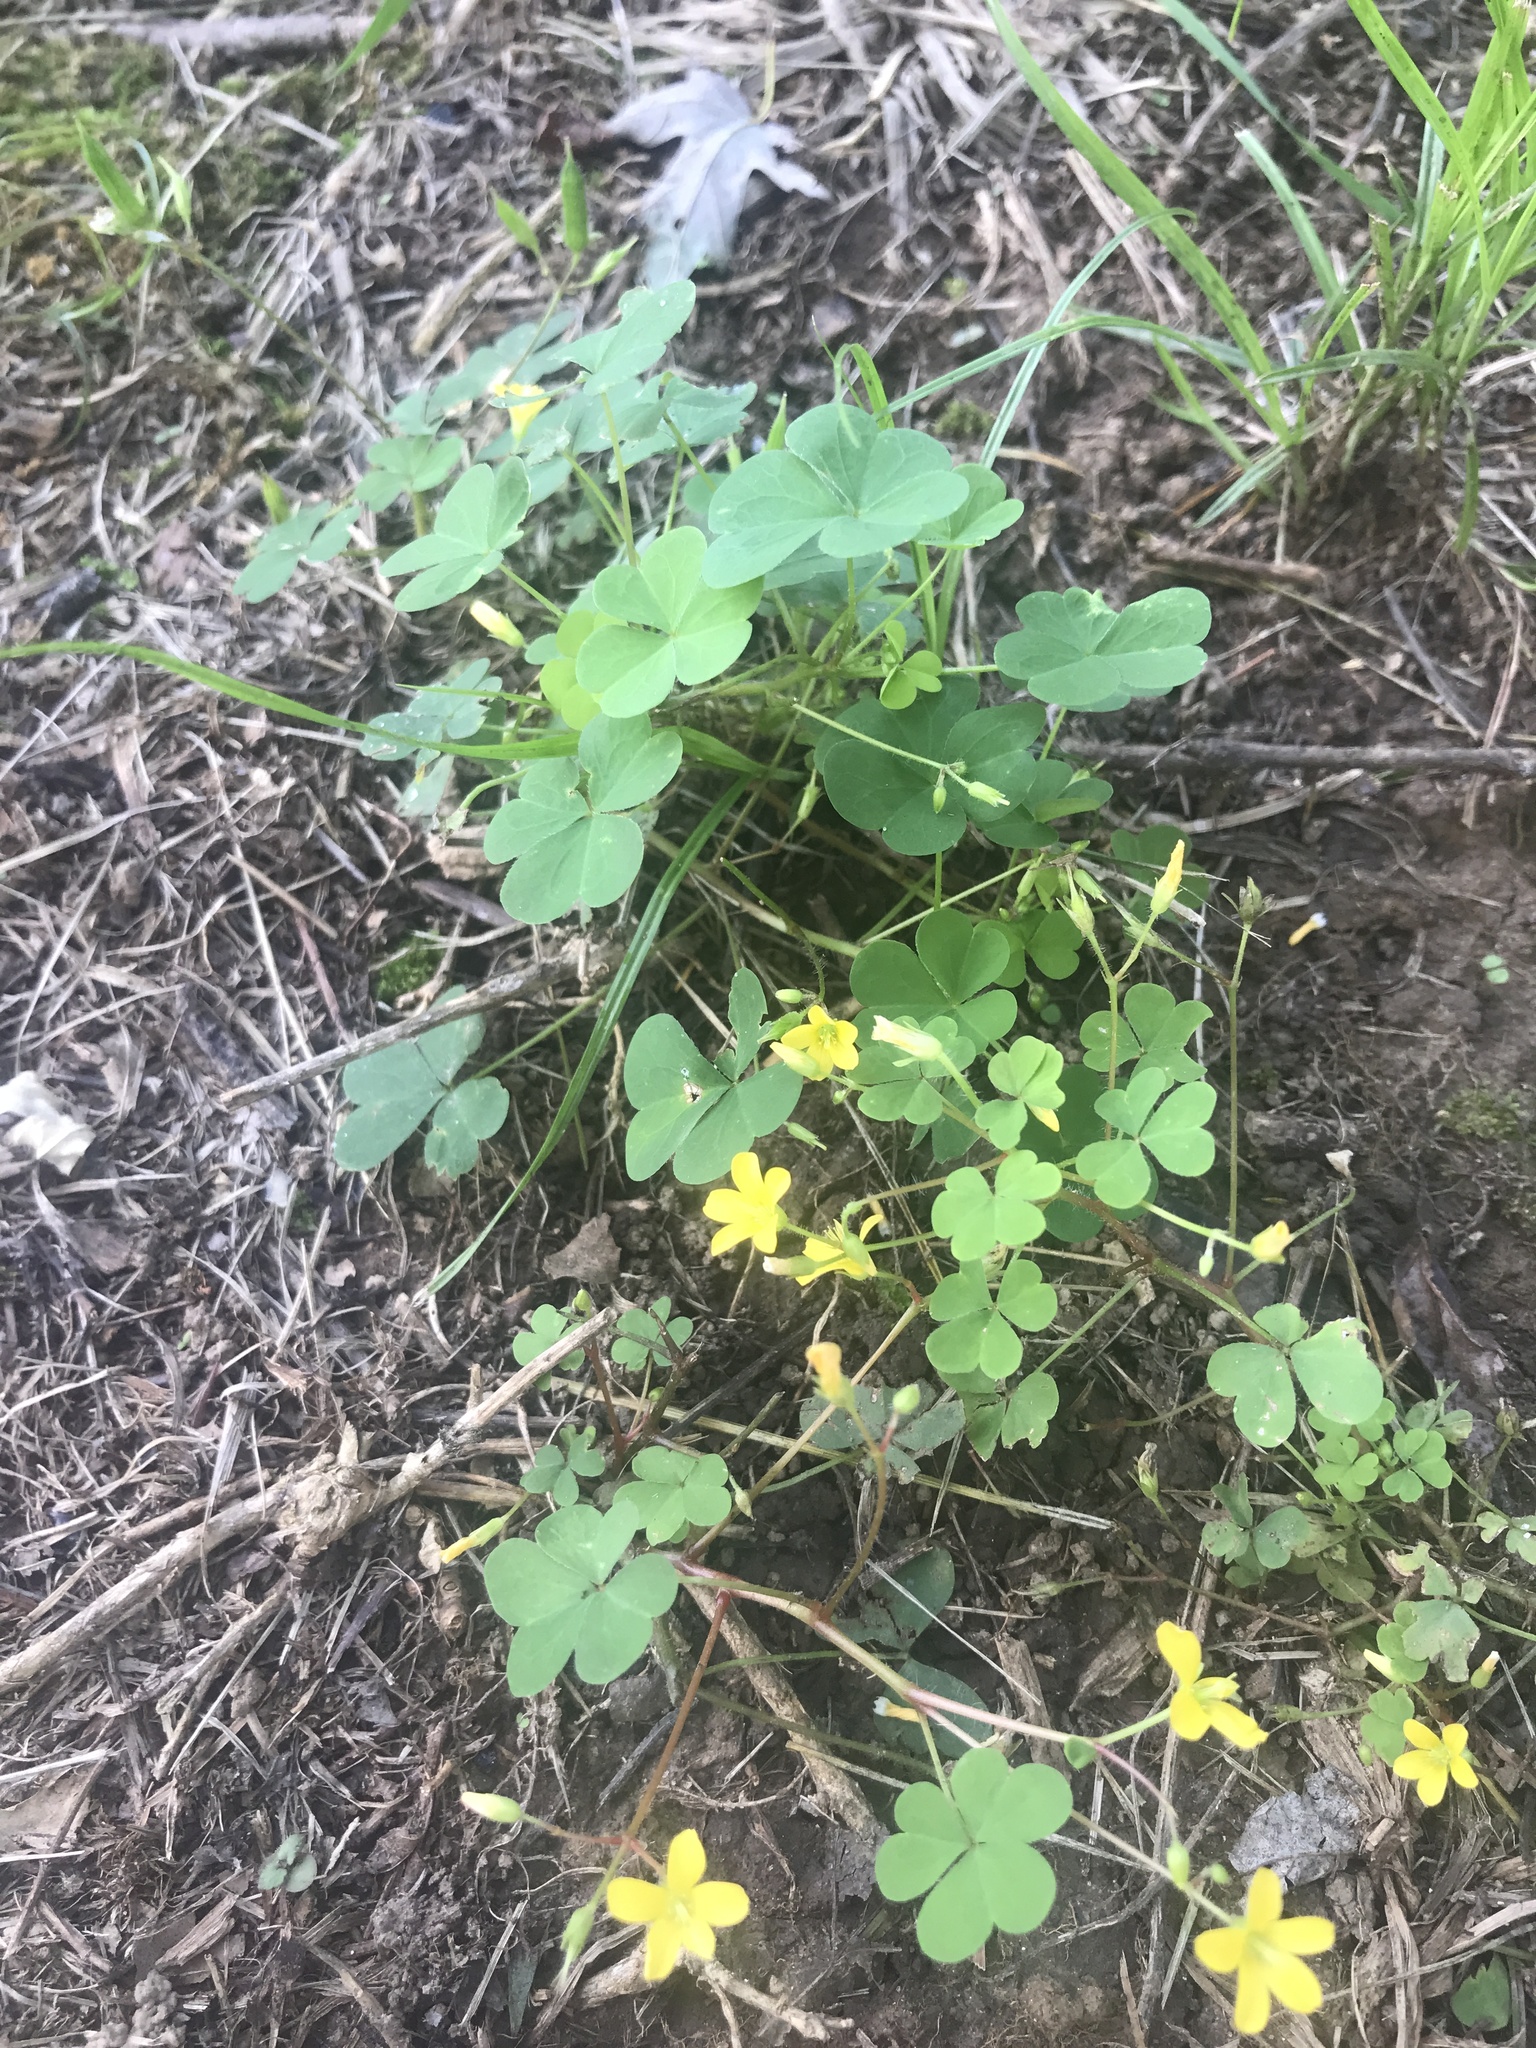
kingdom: Plantae
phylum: Tracheophyta
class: Magnoliopsida
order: Oxalidales
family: Oxalidaceae
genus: Oxalis
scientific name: Oxalis stricta
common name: Upright yellow-sorrel
